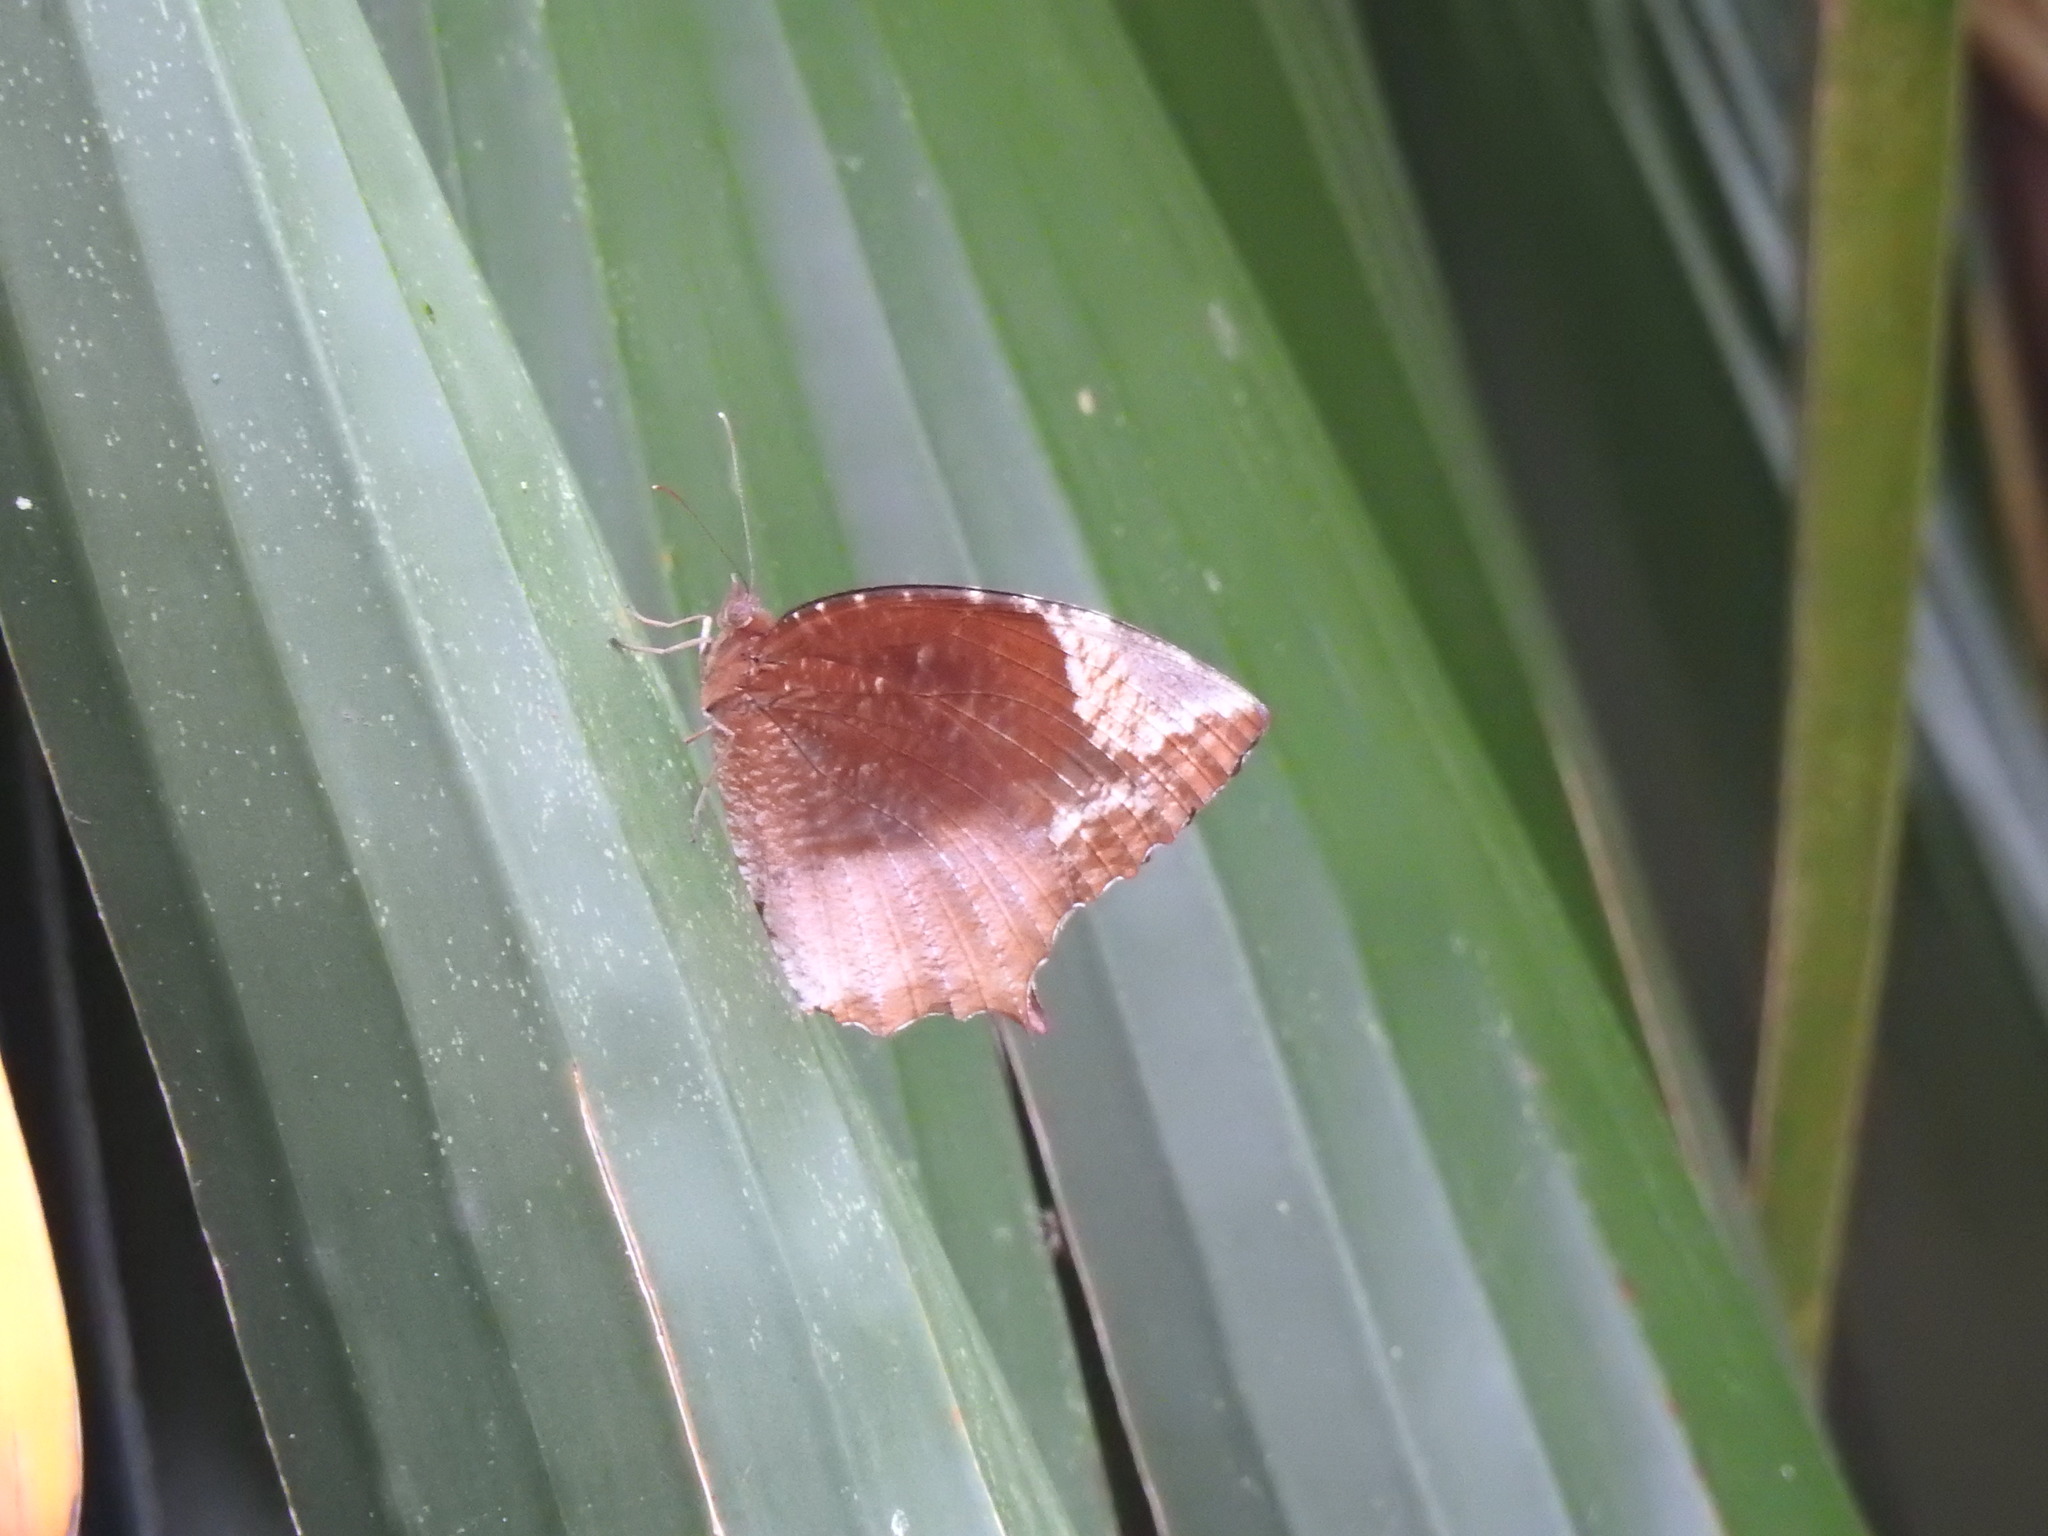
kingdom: Animalia
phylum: Arthropoda
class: Insecta
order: Lepidoptera
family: Nymphalidae
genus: Elymnias
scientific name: Elymnias caudata
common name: Tailed palmfly
